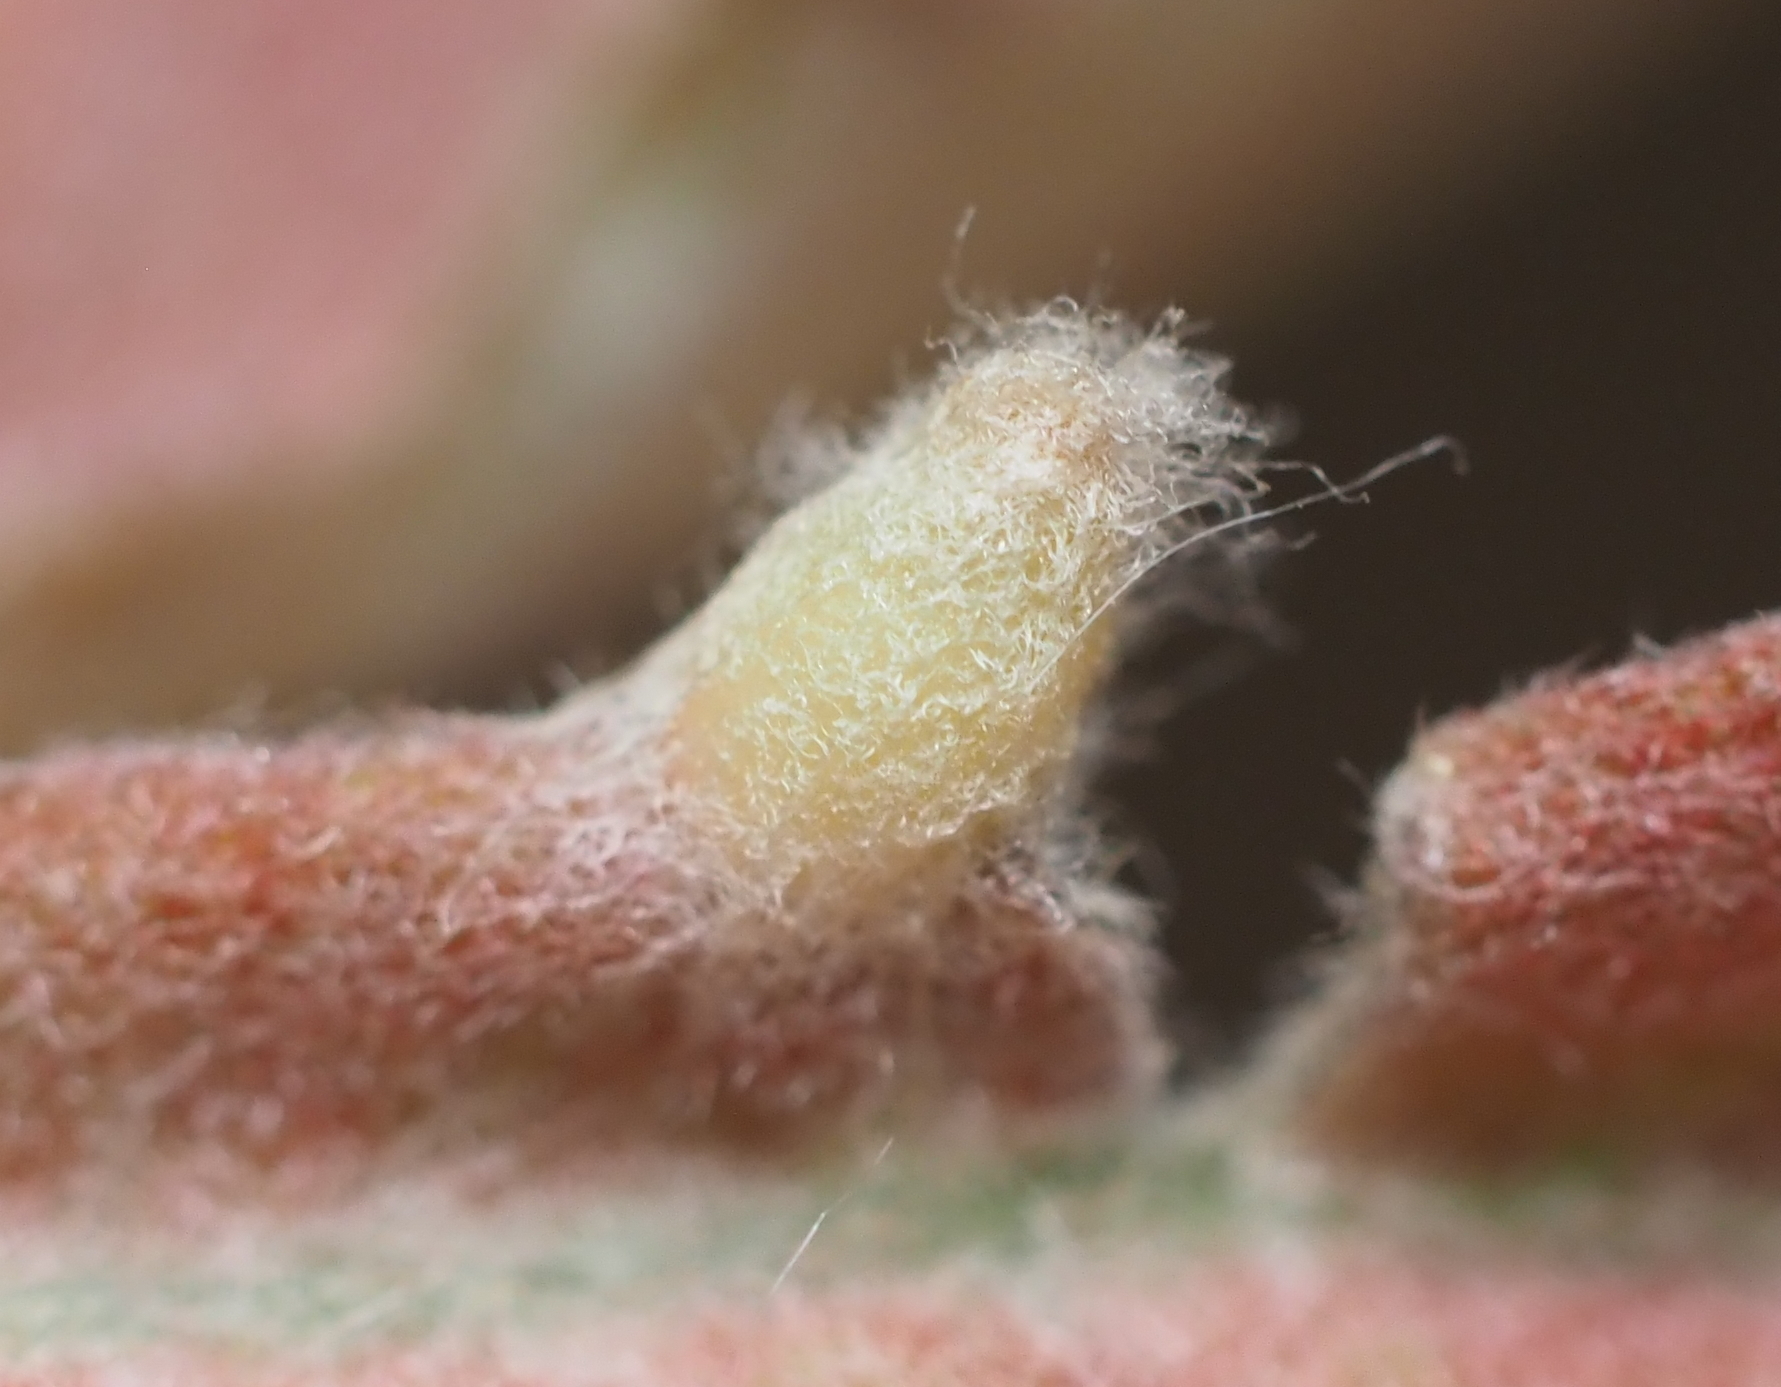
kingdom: Animalia
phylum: Arthropoda
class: Insecta
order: Hymenoptera
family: Cynipidae
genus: Neuroterus
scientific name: Neuroterus
